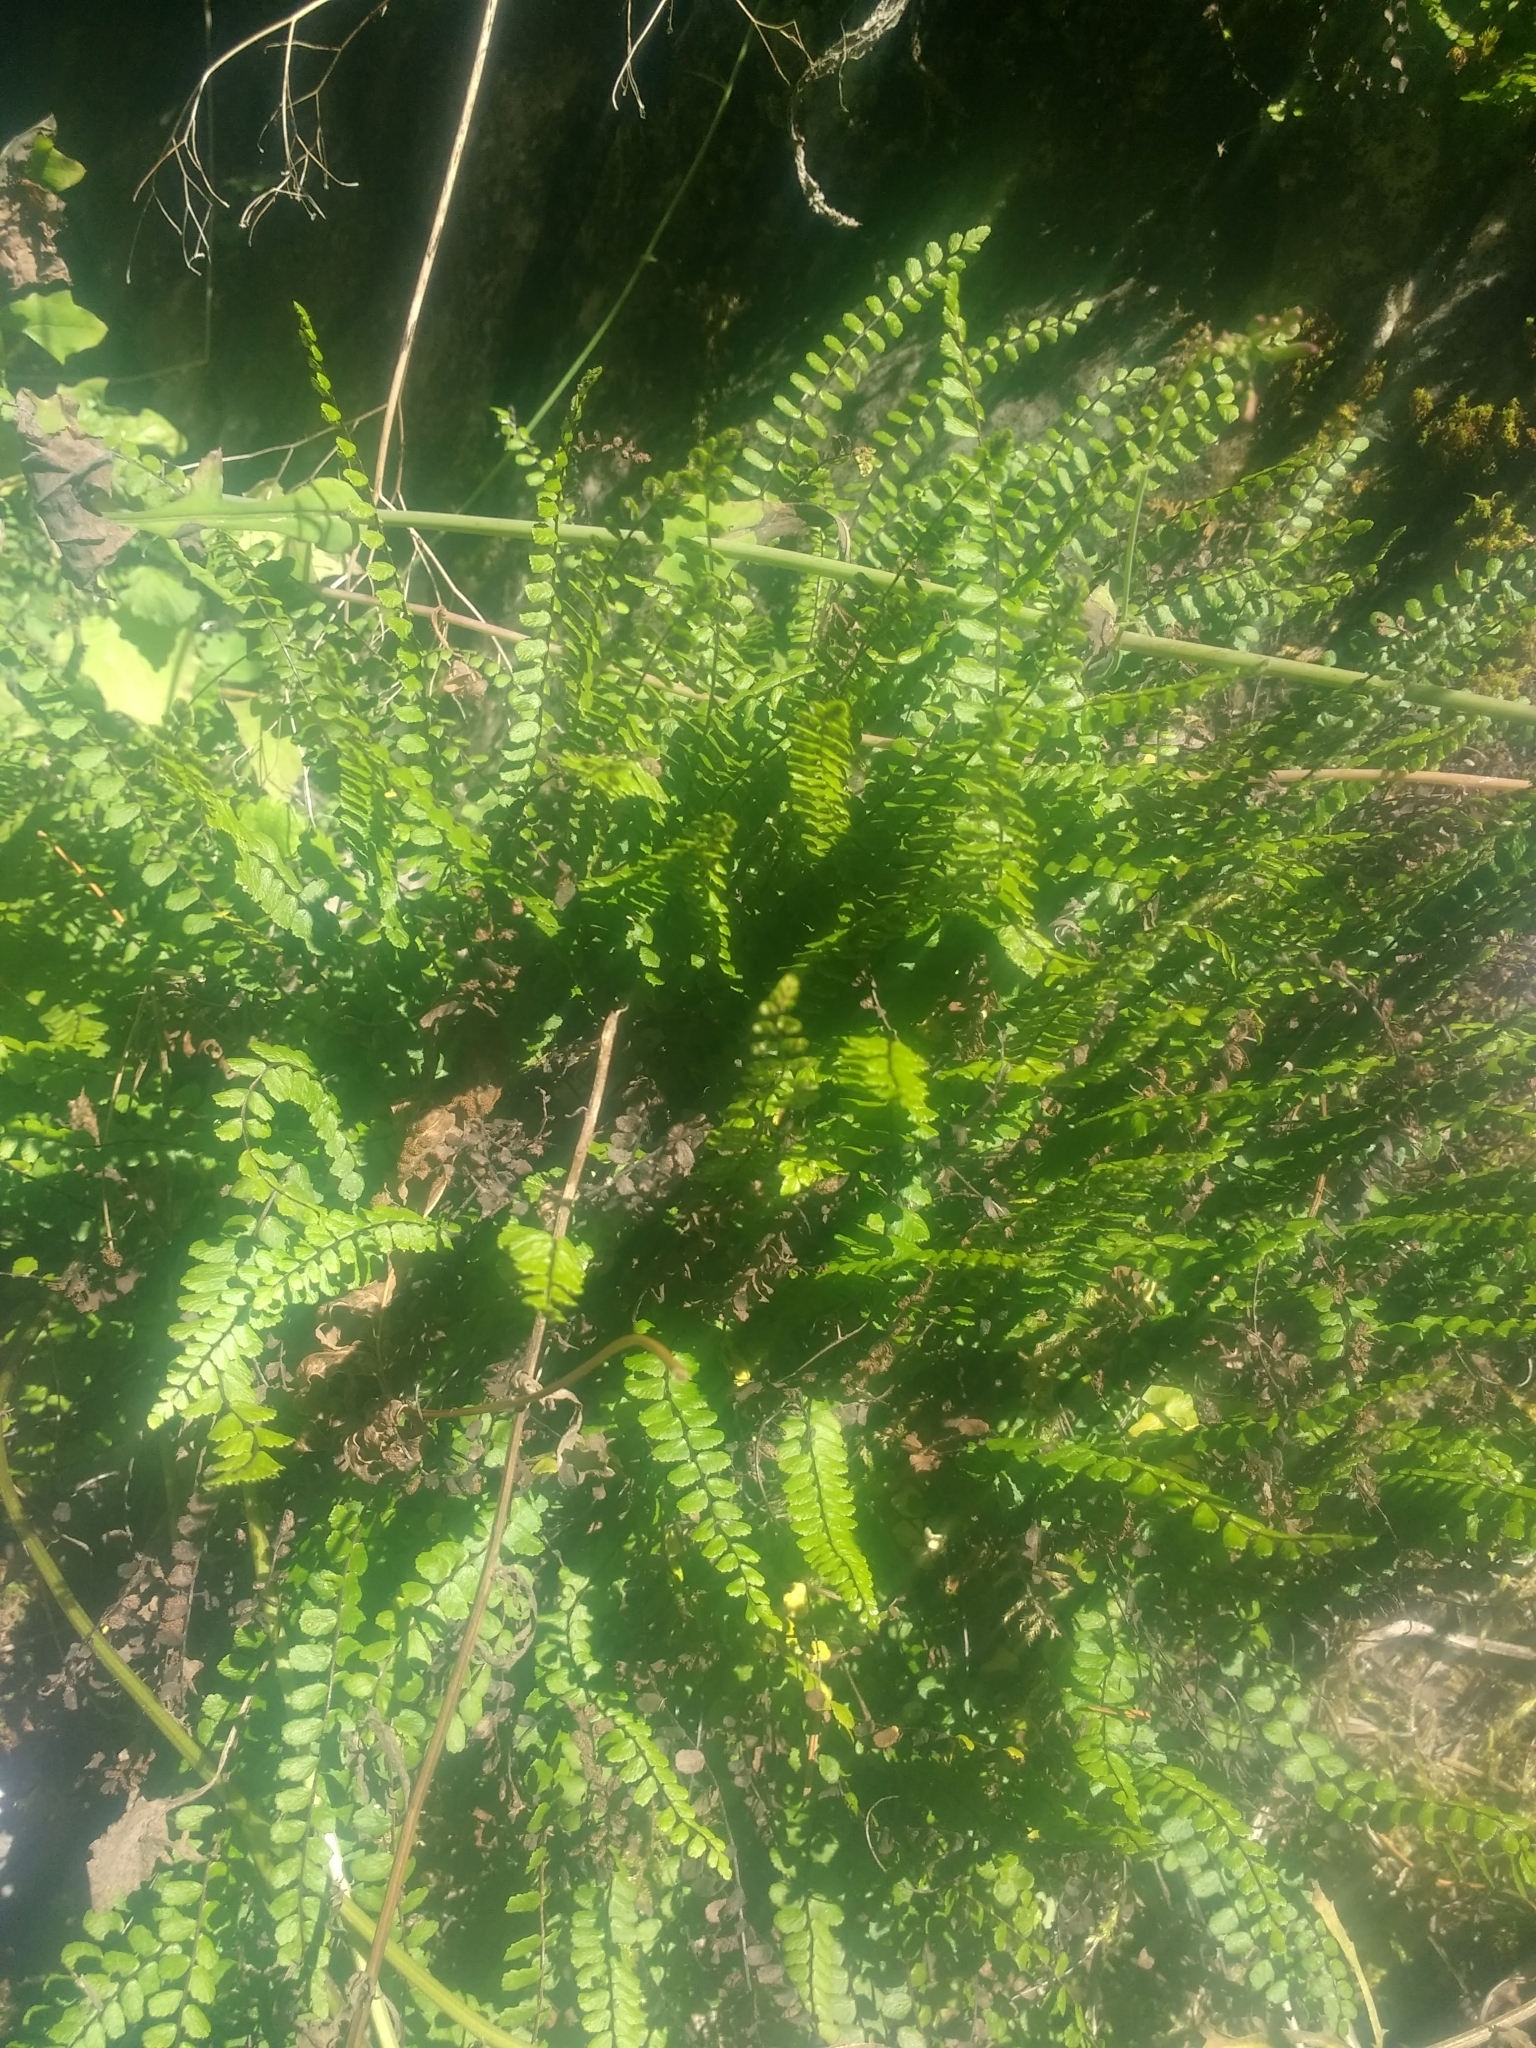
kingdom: Plantae
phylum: Tracheophyta
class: Polypodiopsida
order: Polypodiales
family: Aspleniaceae
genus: Asplenium
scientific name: Asplenium trichomanes
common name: Maidenhair spleenwort
